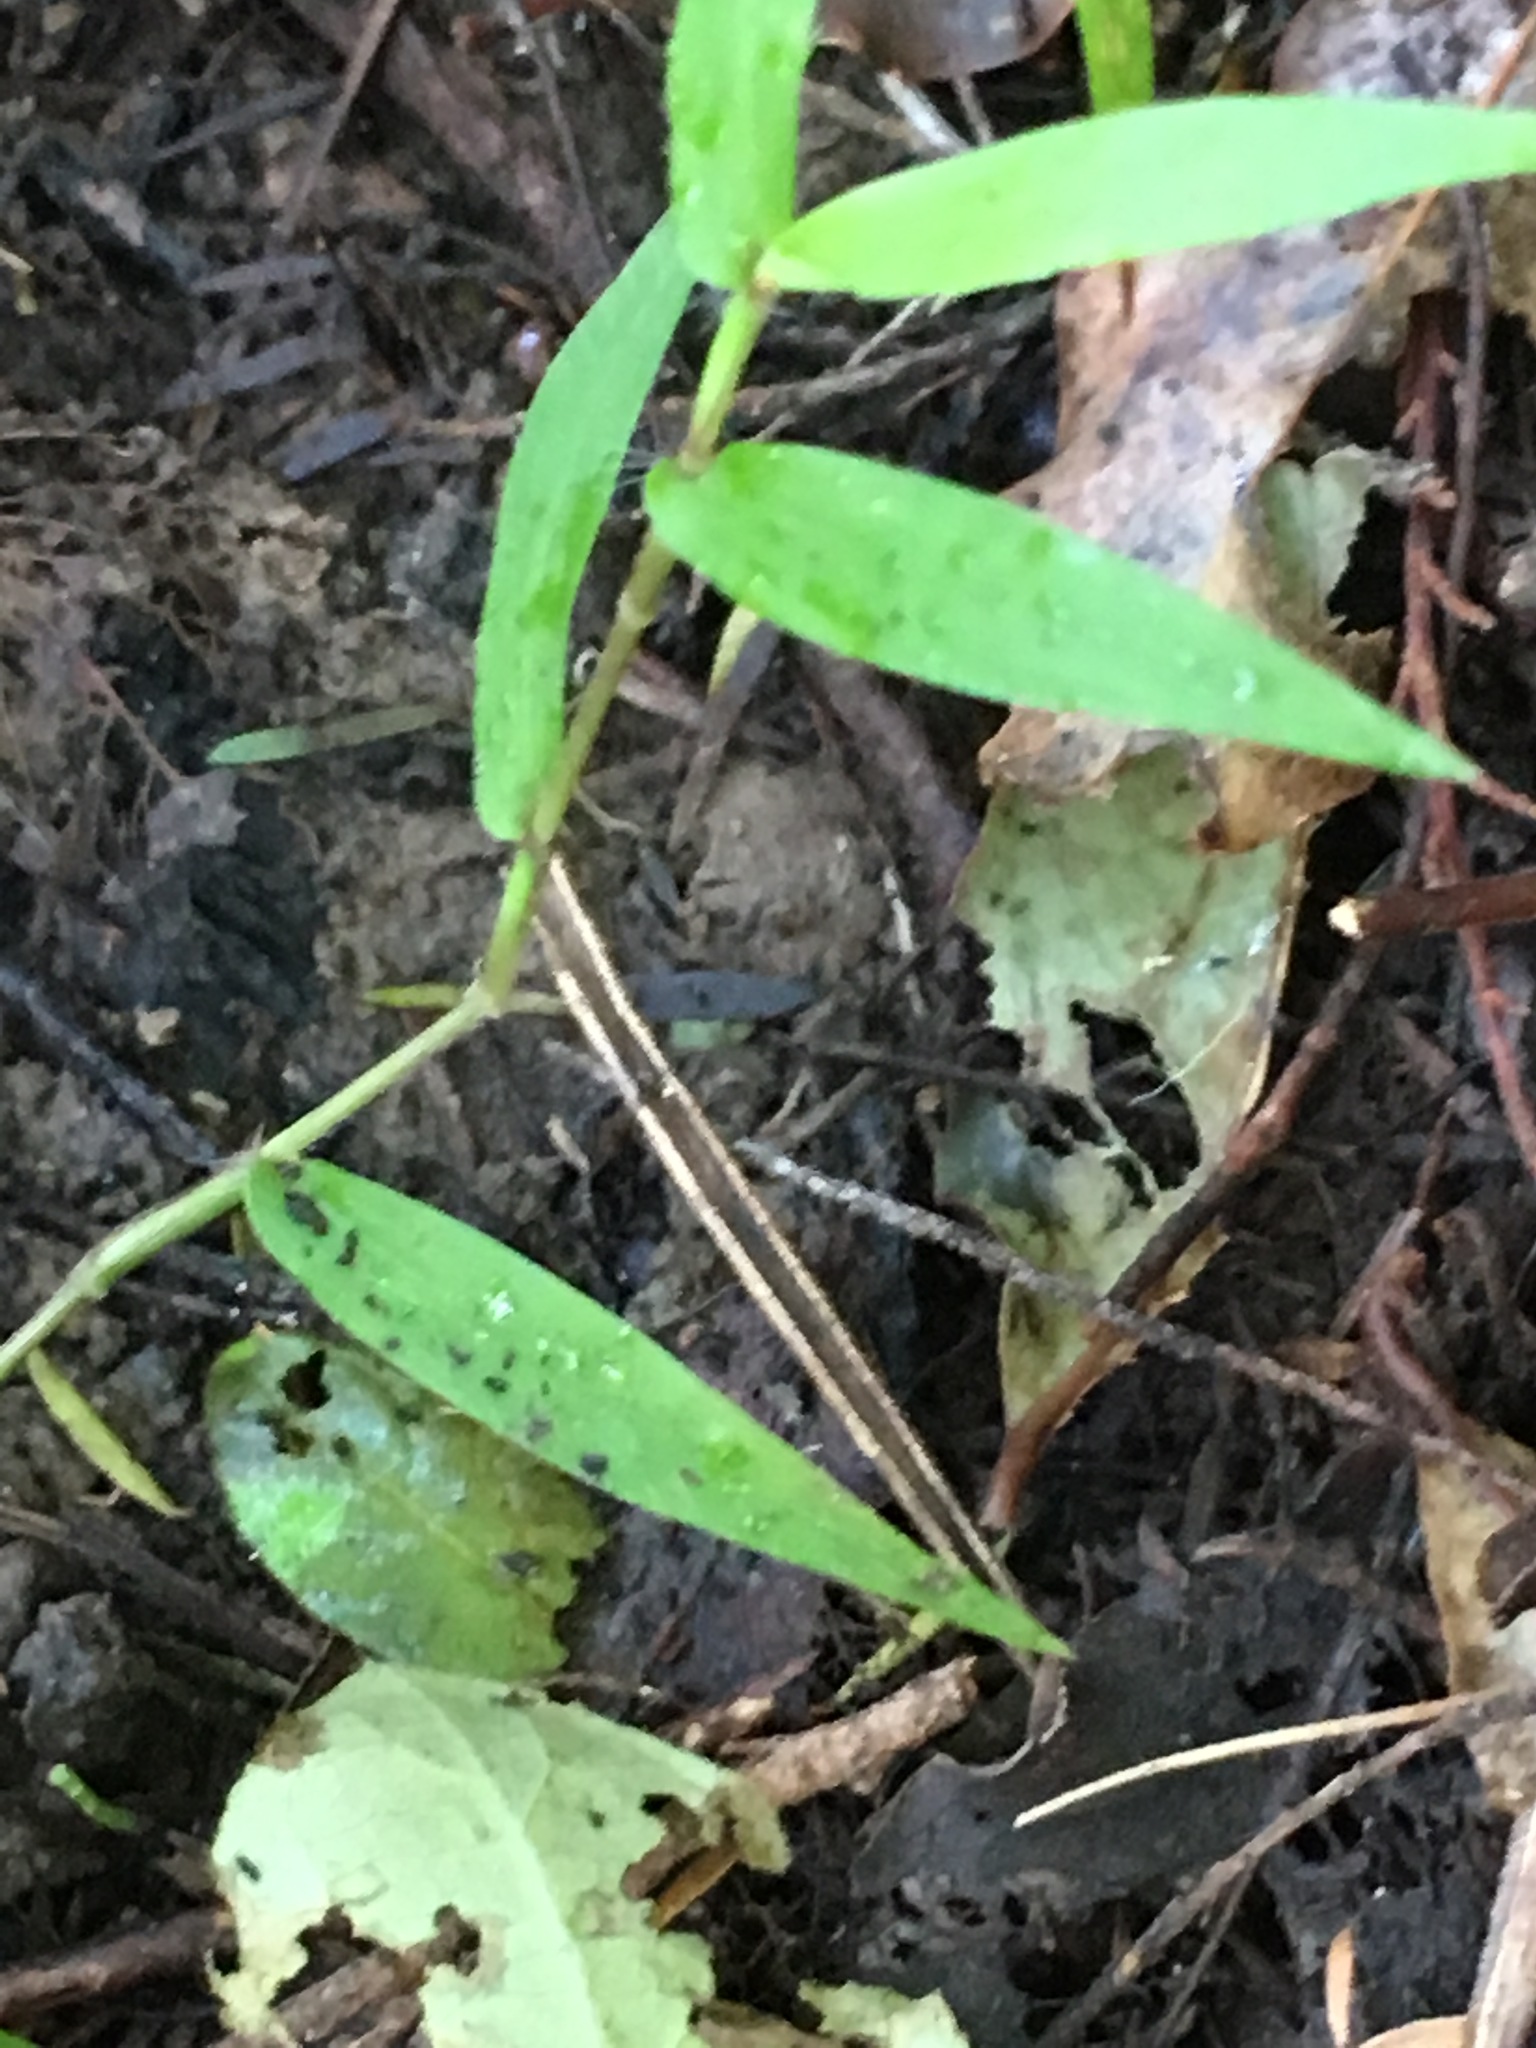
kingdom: Plantae
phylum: Tracheophyta
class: Liliopsida
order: Poales
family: Poaceae
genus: Oplismenus
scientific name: Oplismenus hirtellus
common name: Basketgrass
